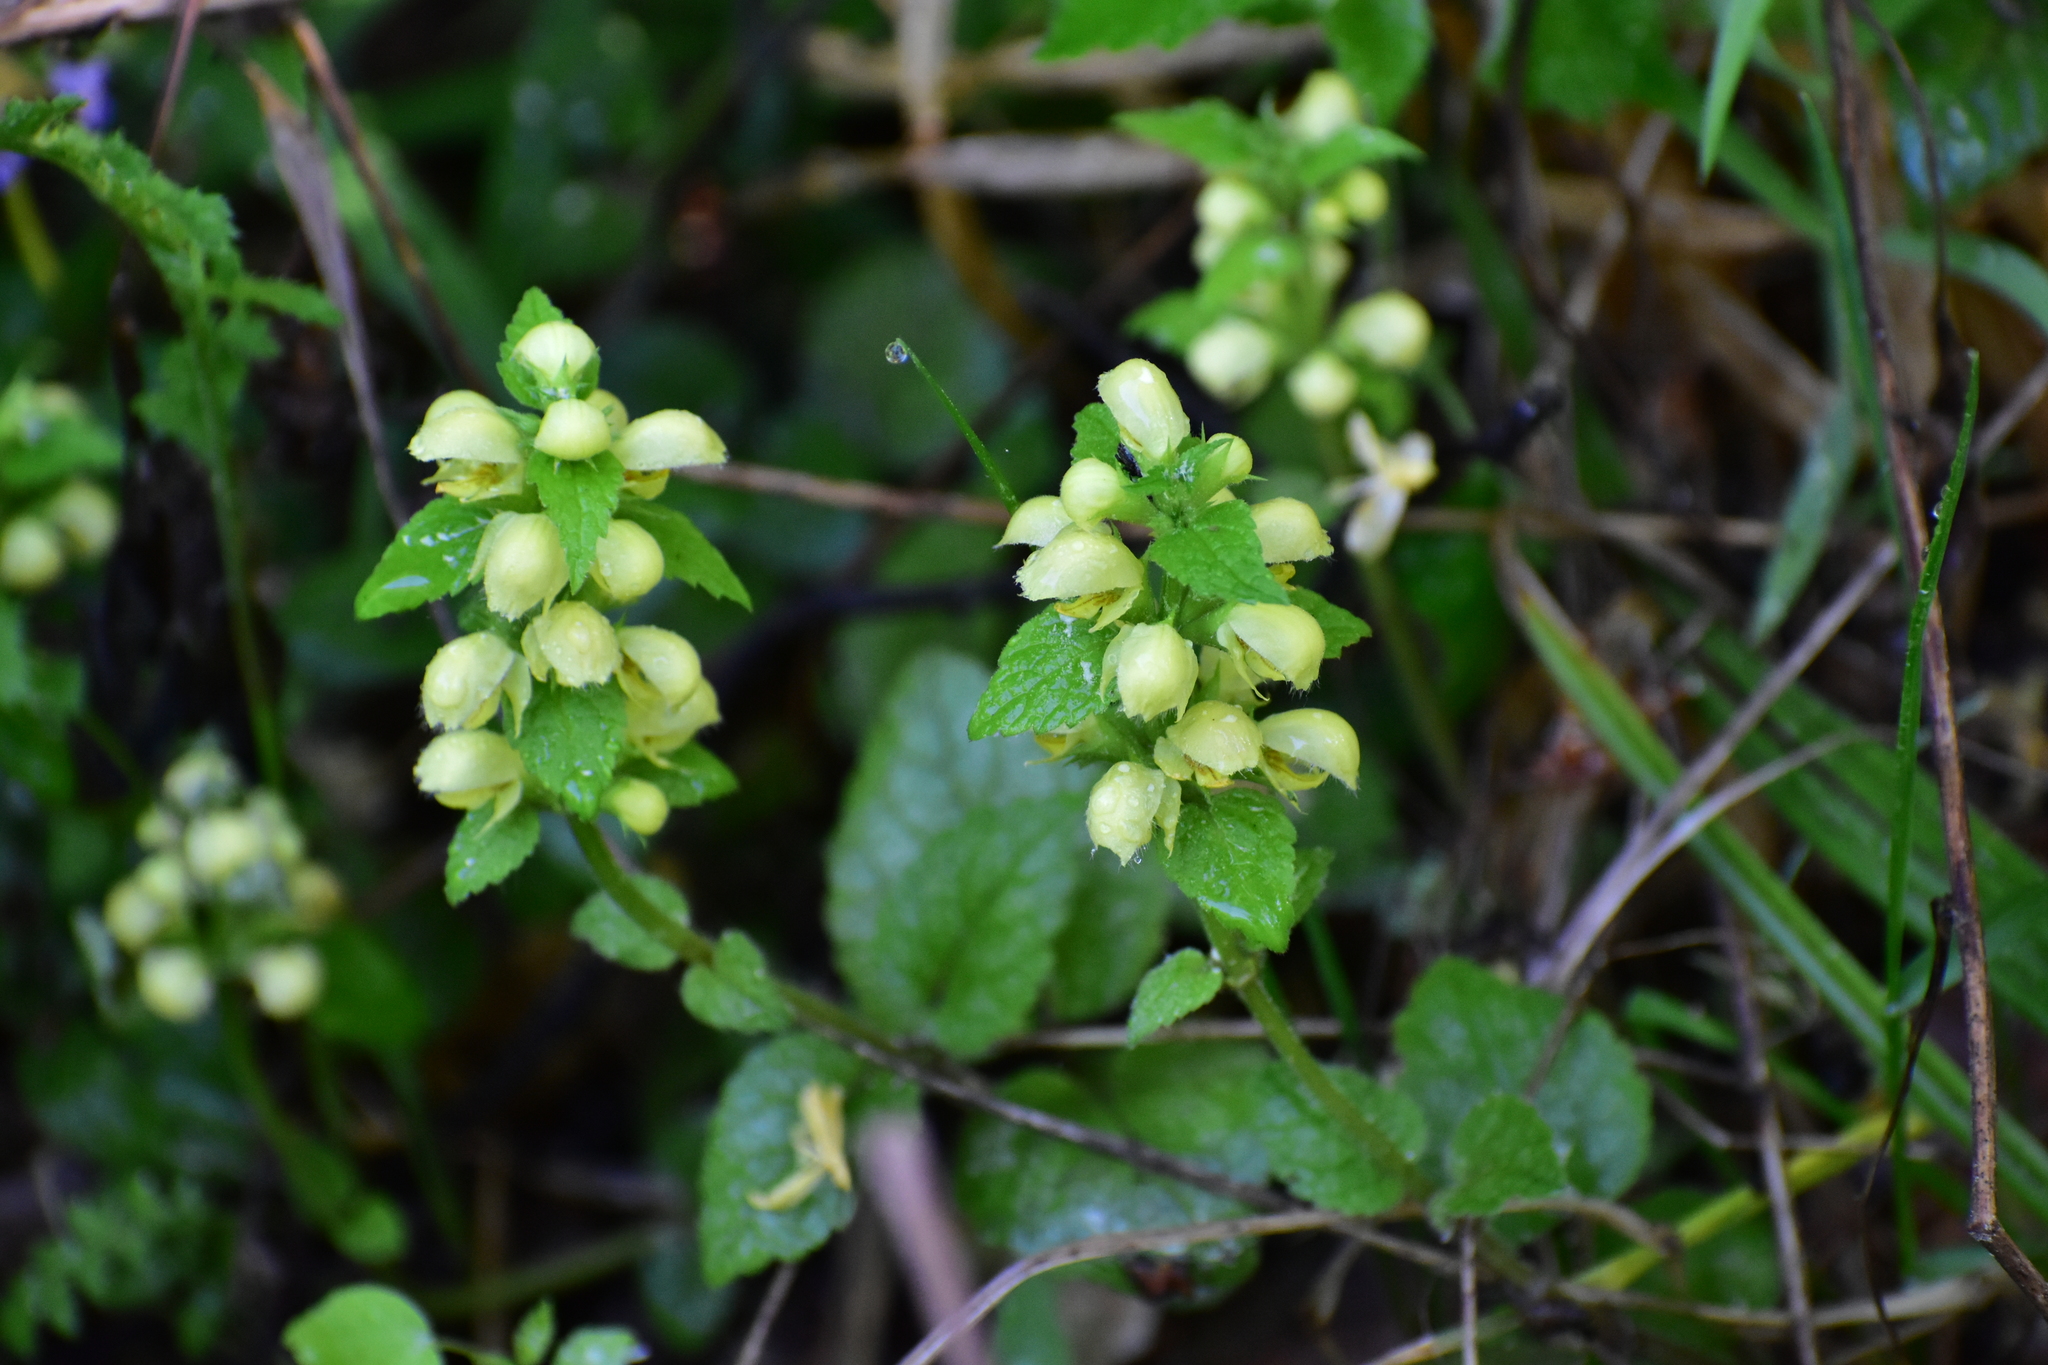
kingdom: Plantae
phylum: Tracheophyta
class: Magnoliopsida
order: Lamiales
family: Lamiaceae
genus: Lamium
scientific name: Lamium galeobdolon
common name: Yellow archangel
